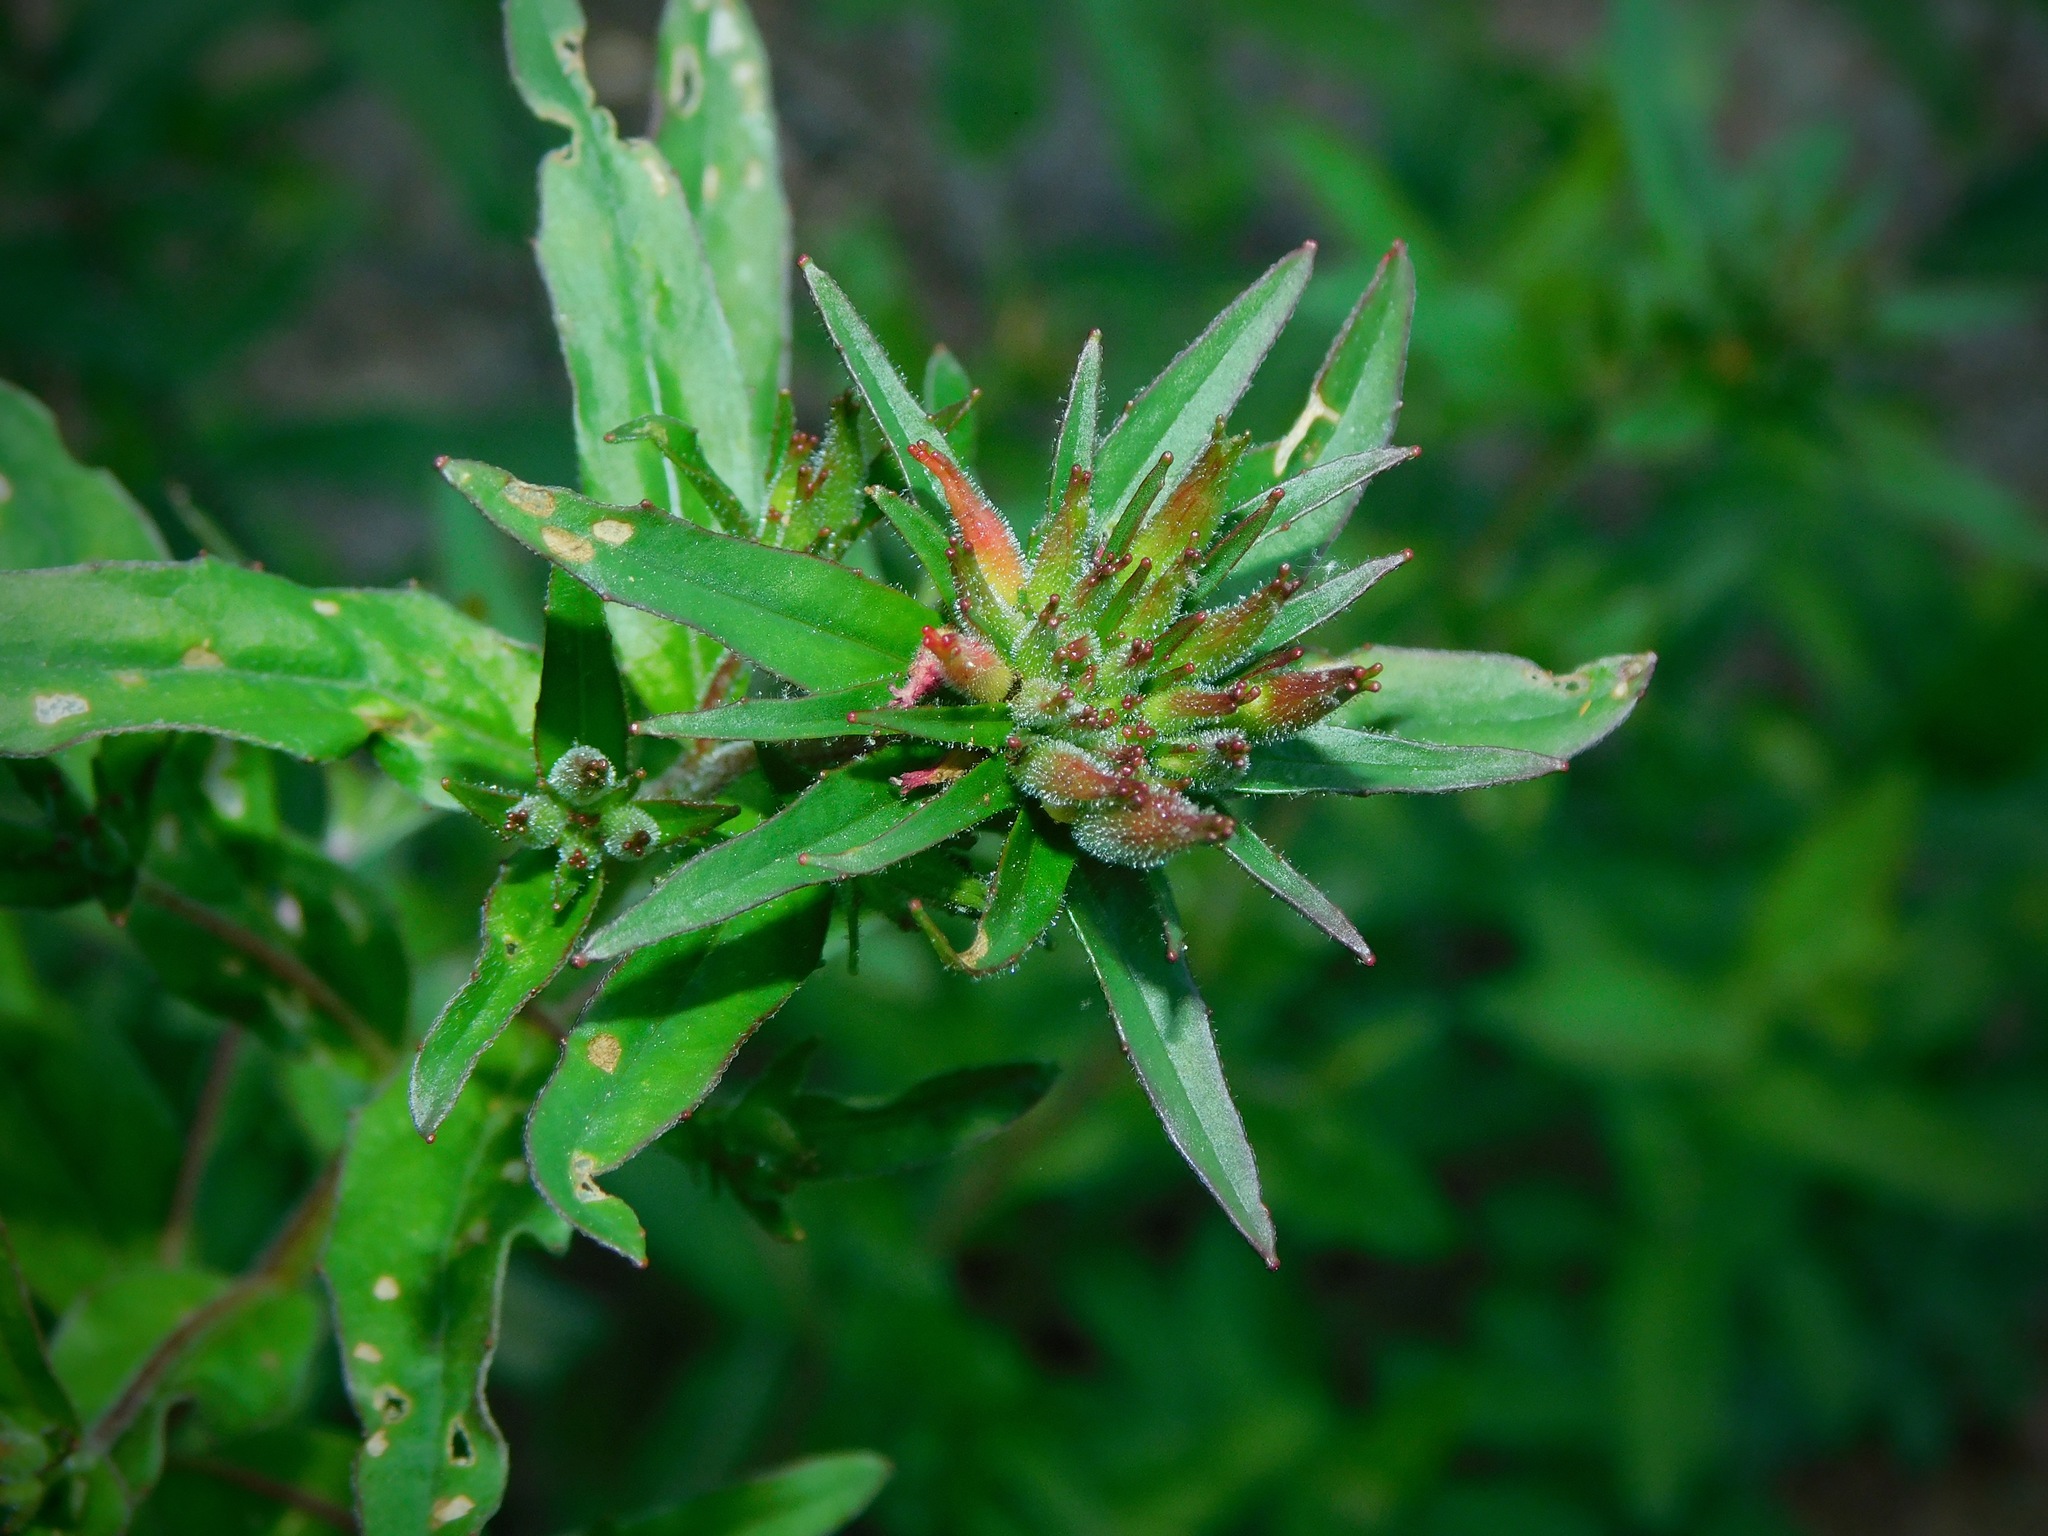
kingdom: Plantae
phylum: Tracheophyta
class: Magnoliopsida
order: Myrtales
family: Onagraceae
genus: Oenothera
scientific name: Oenothera fruticosa
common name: Southern sundrops
